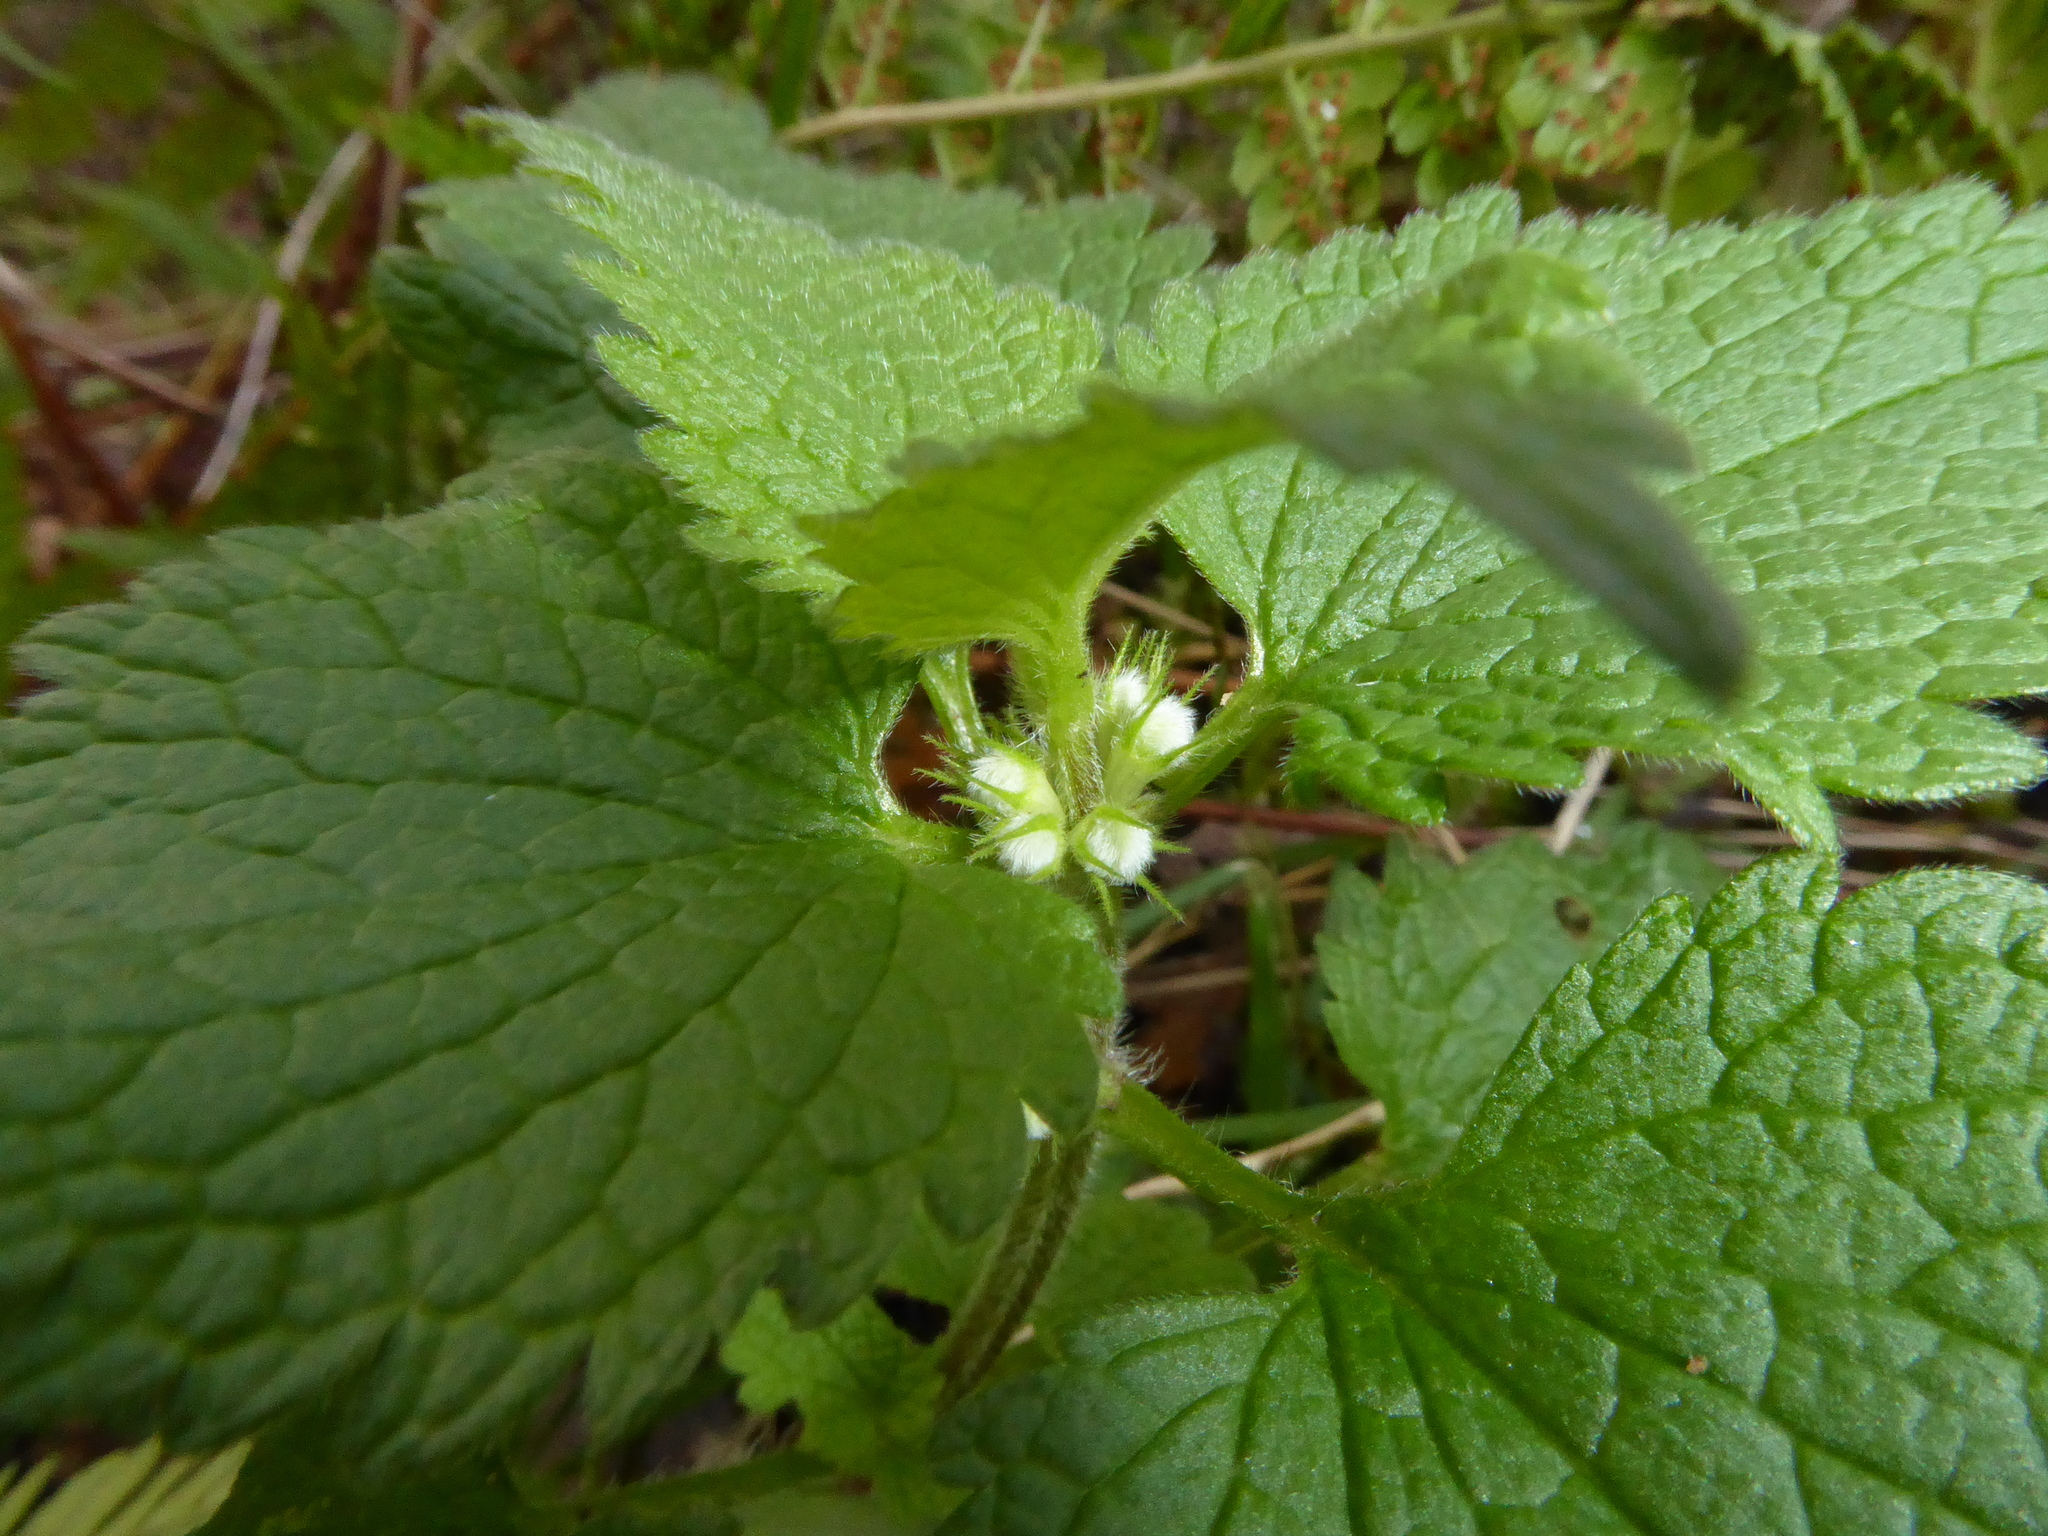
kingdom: Plantae
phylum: Tracheophyta
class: Magnoliopsida
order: Lamiales
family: Lamiaceae
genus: Lamium
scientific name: Lamium album
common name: White dead-nettle
